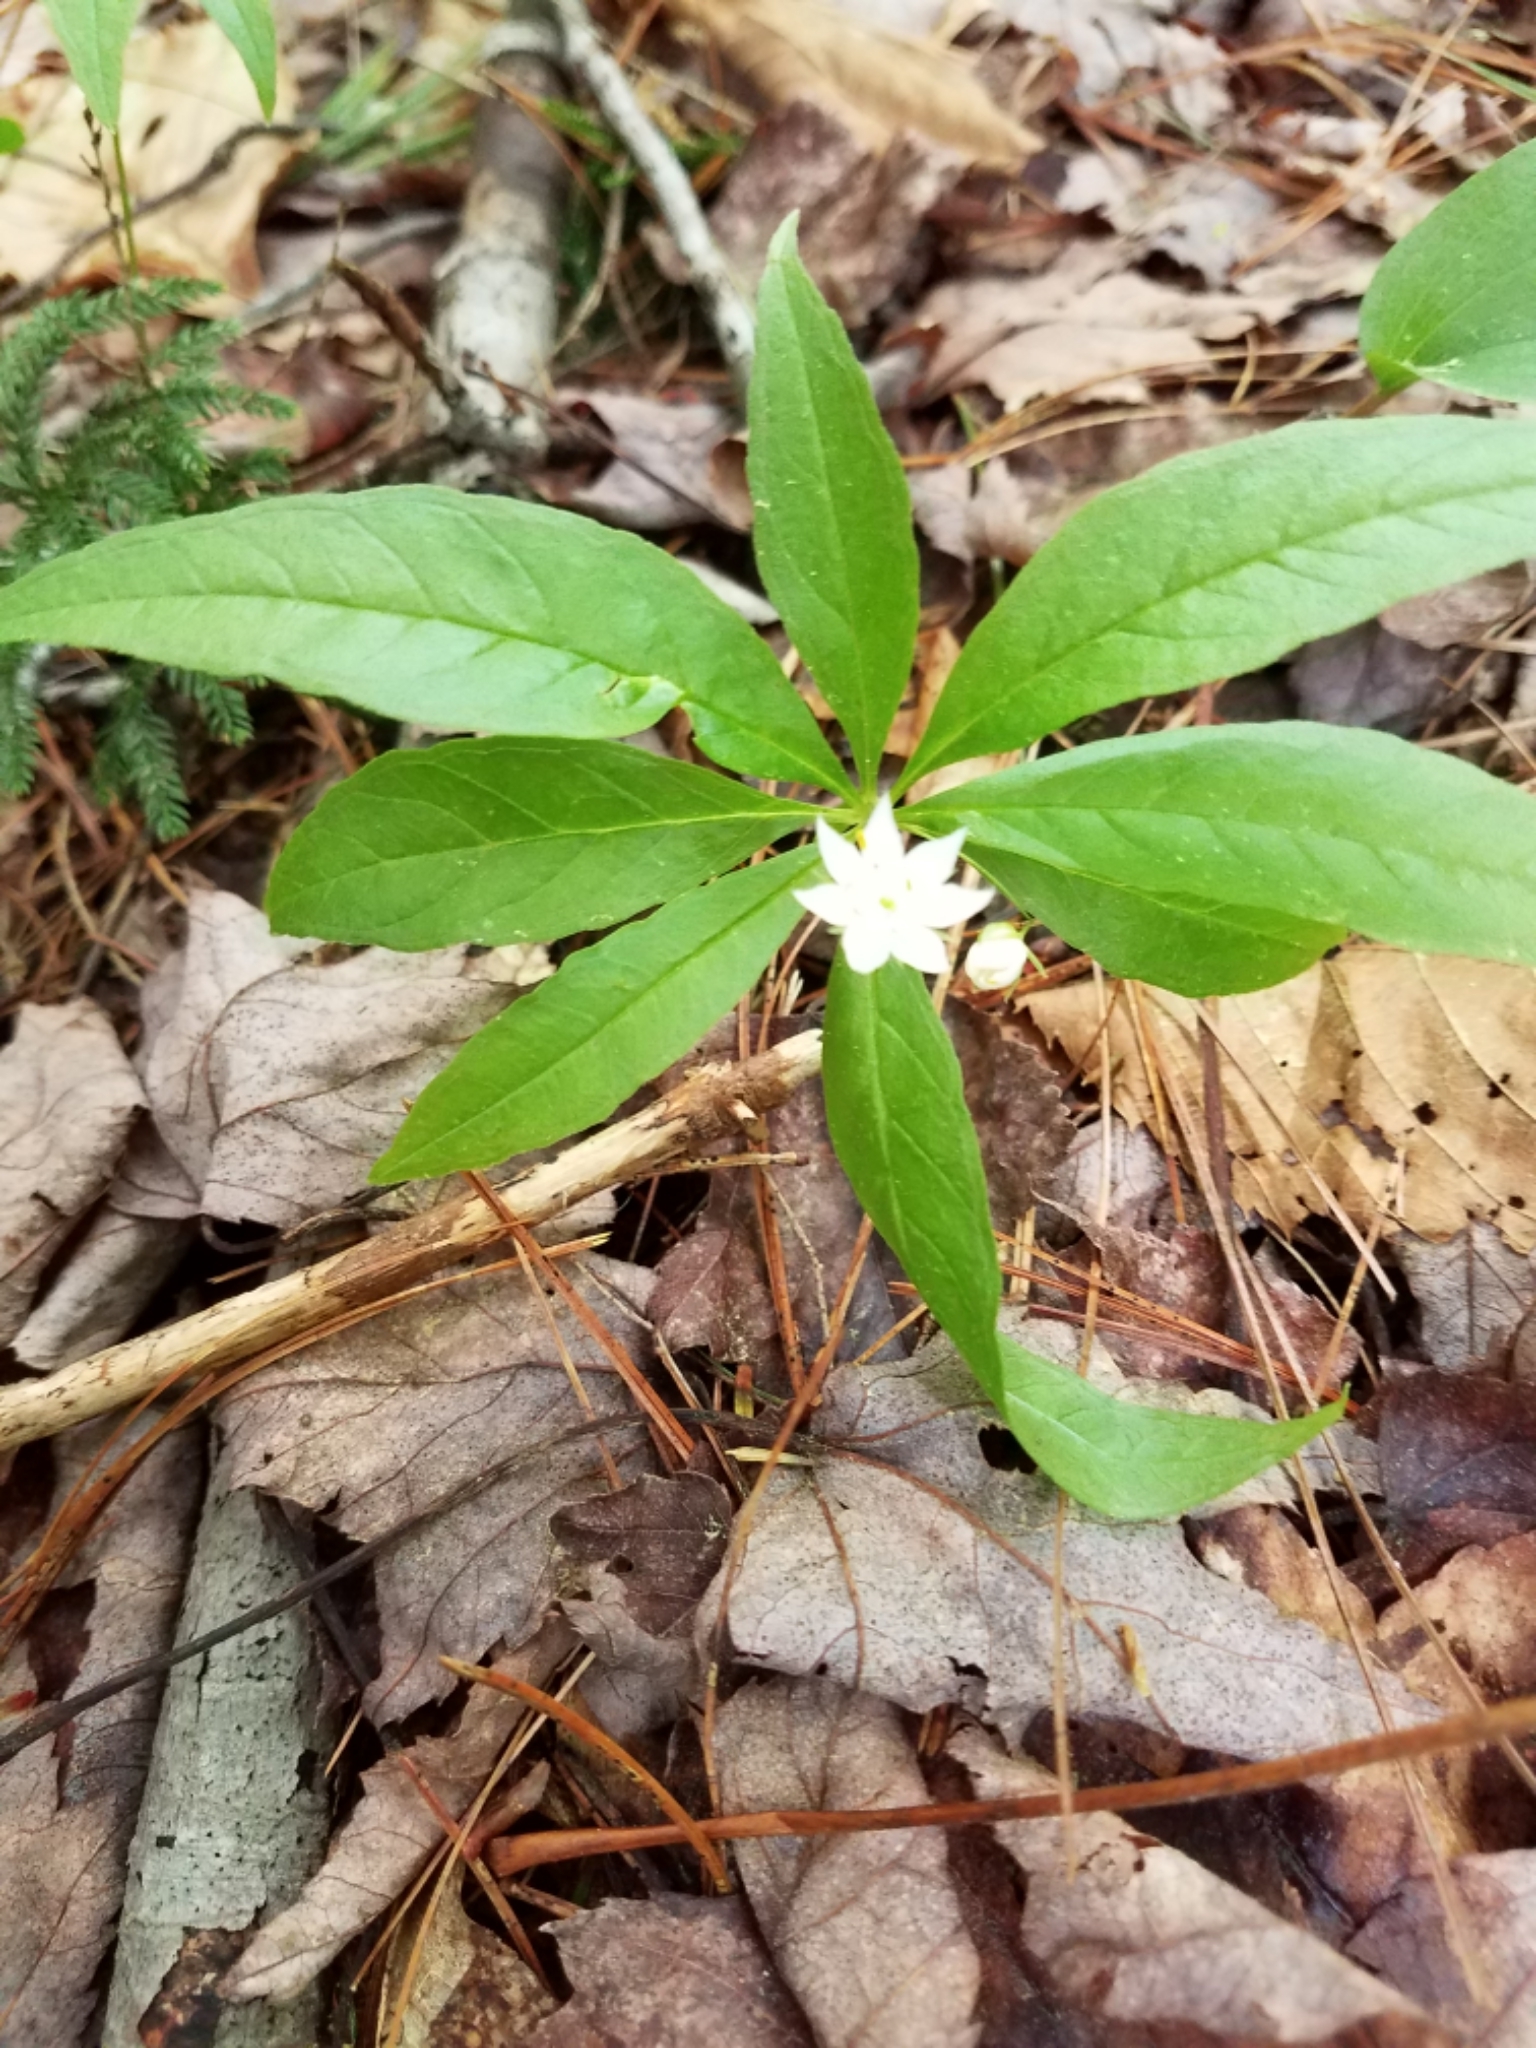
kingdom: Plantae
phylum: Tracheophyta
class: Magnoliopsida
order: Ericales
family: Primulaceae
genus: Lysimachia
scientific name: Lysimachia borealis
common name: American starflower
